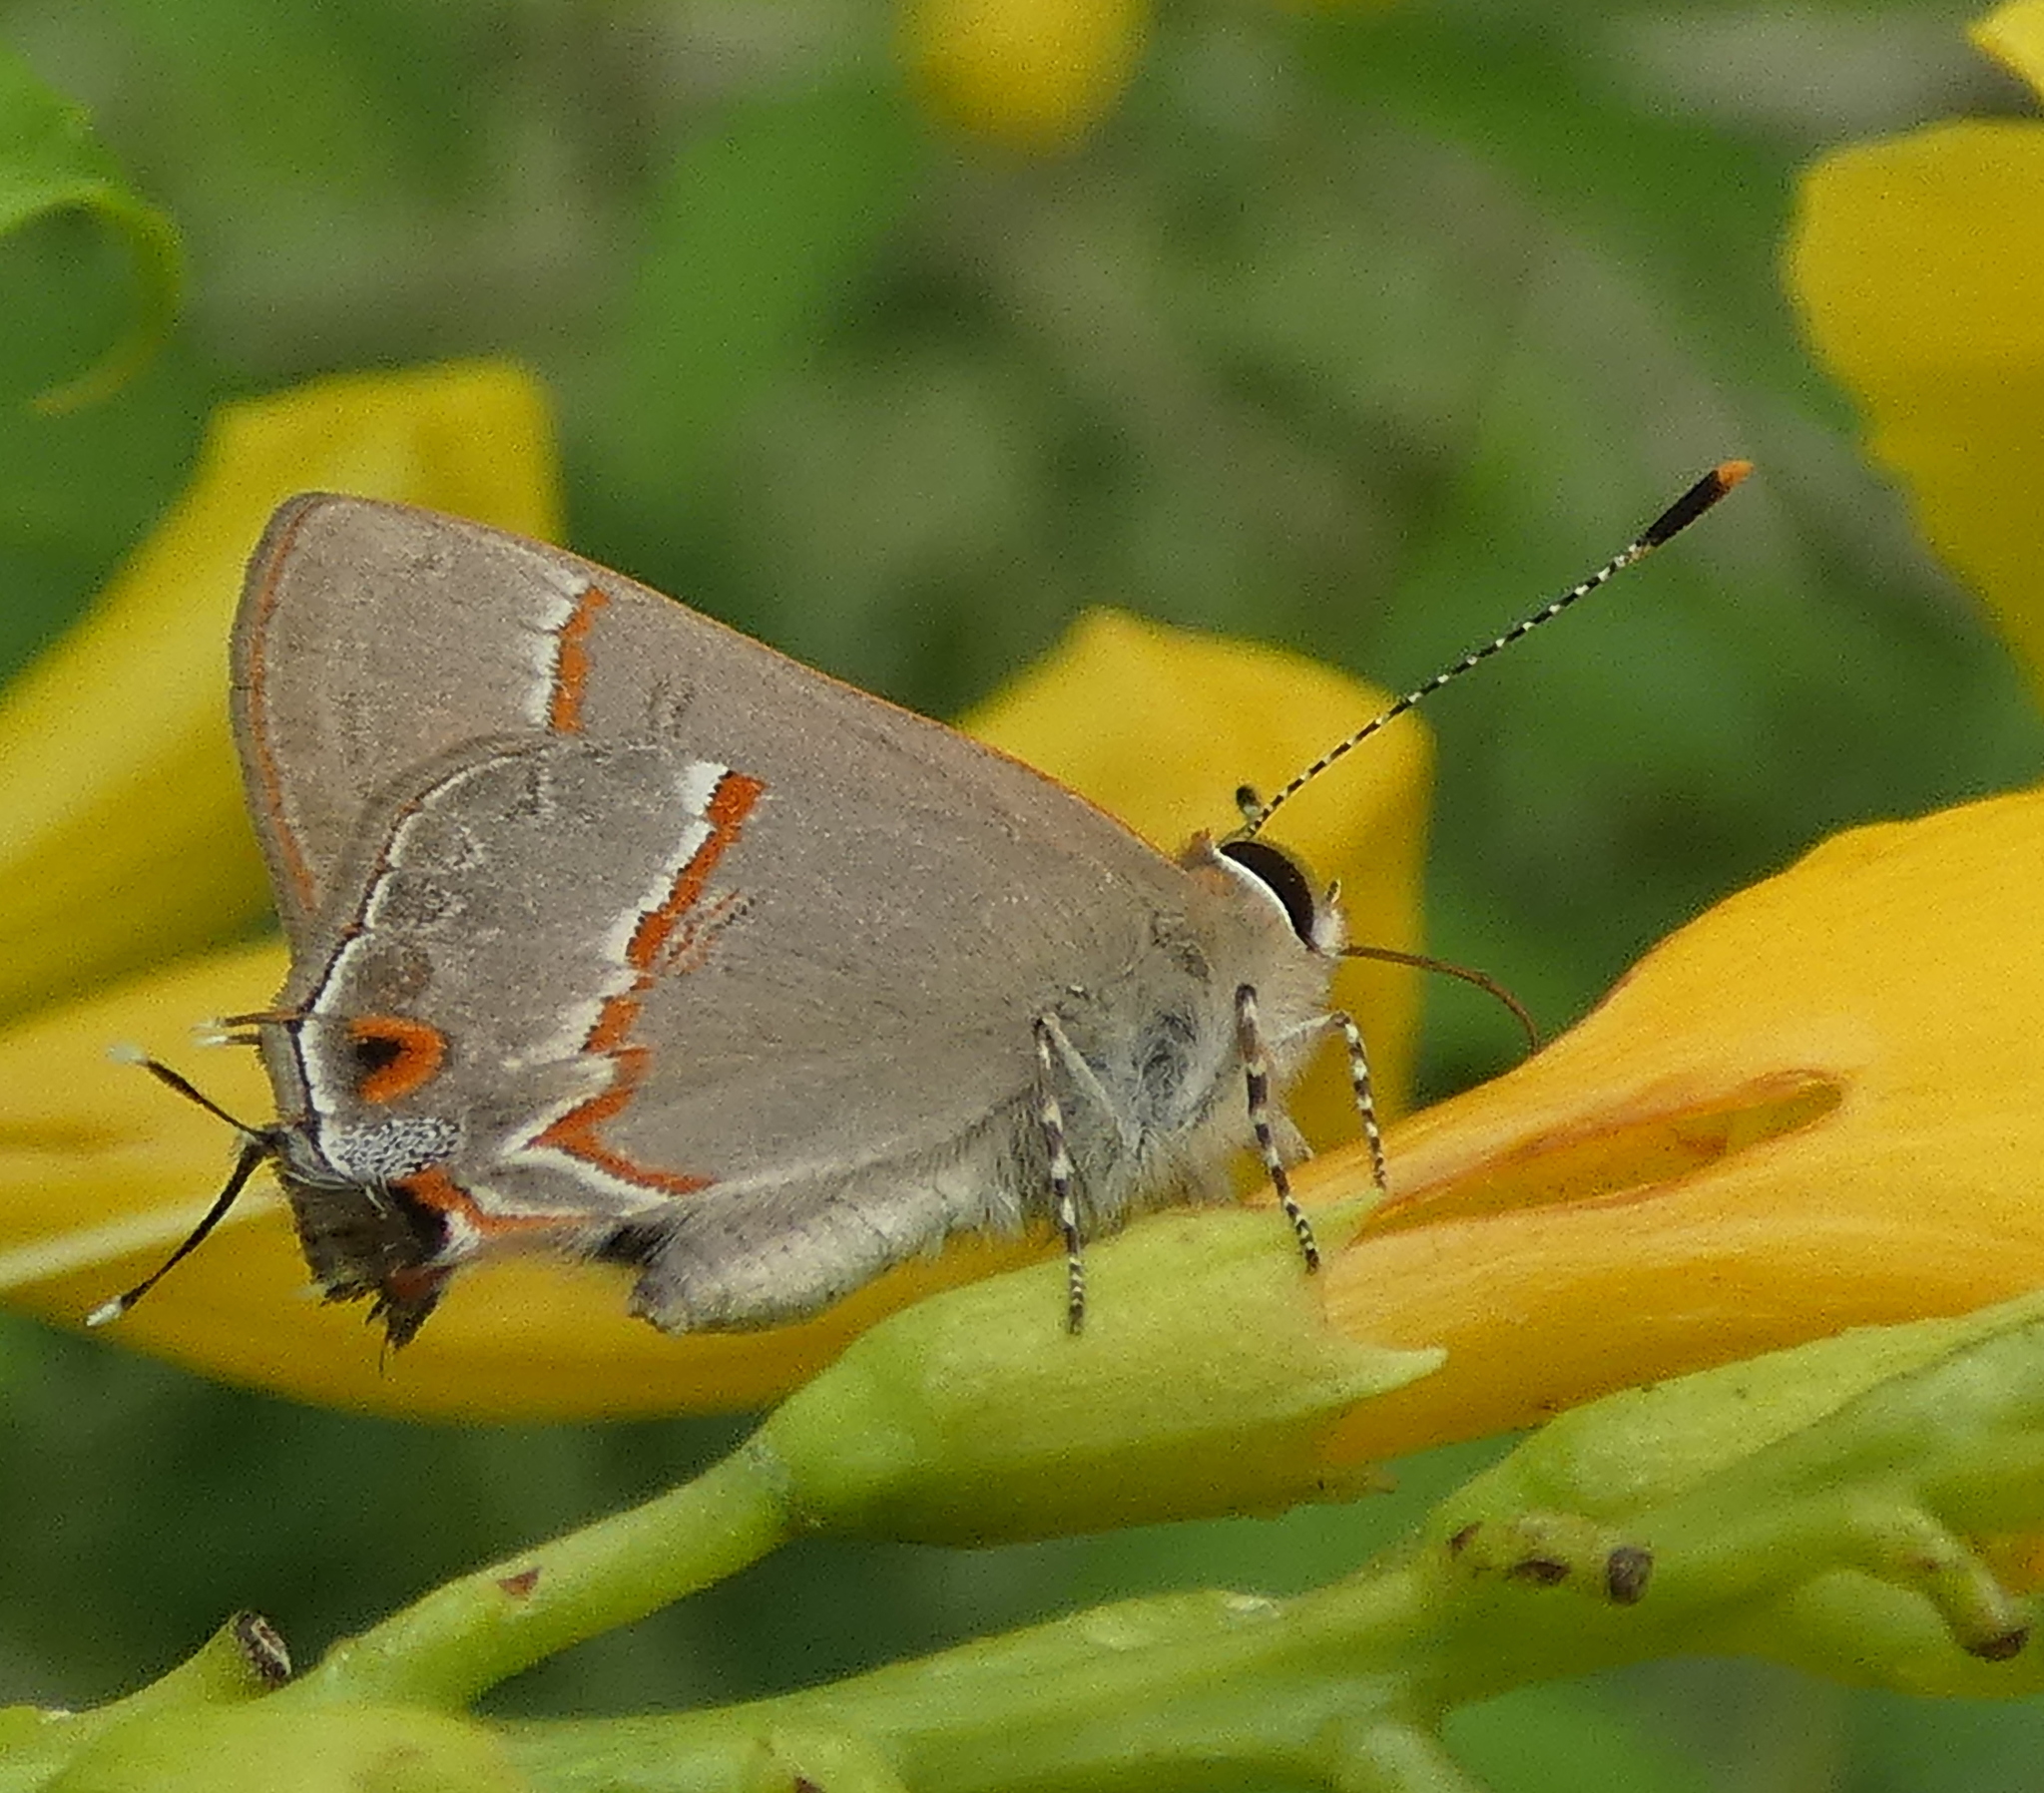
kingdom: Animalia
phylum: Arthropoda
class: Insecta
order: Lepidoptera
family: Lycaenidae
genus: Electrostrymon
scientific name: Electrostrymon endymion
